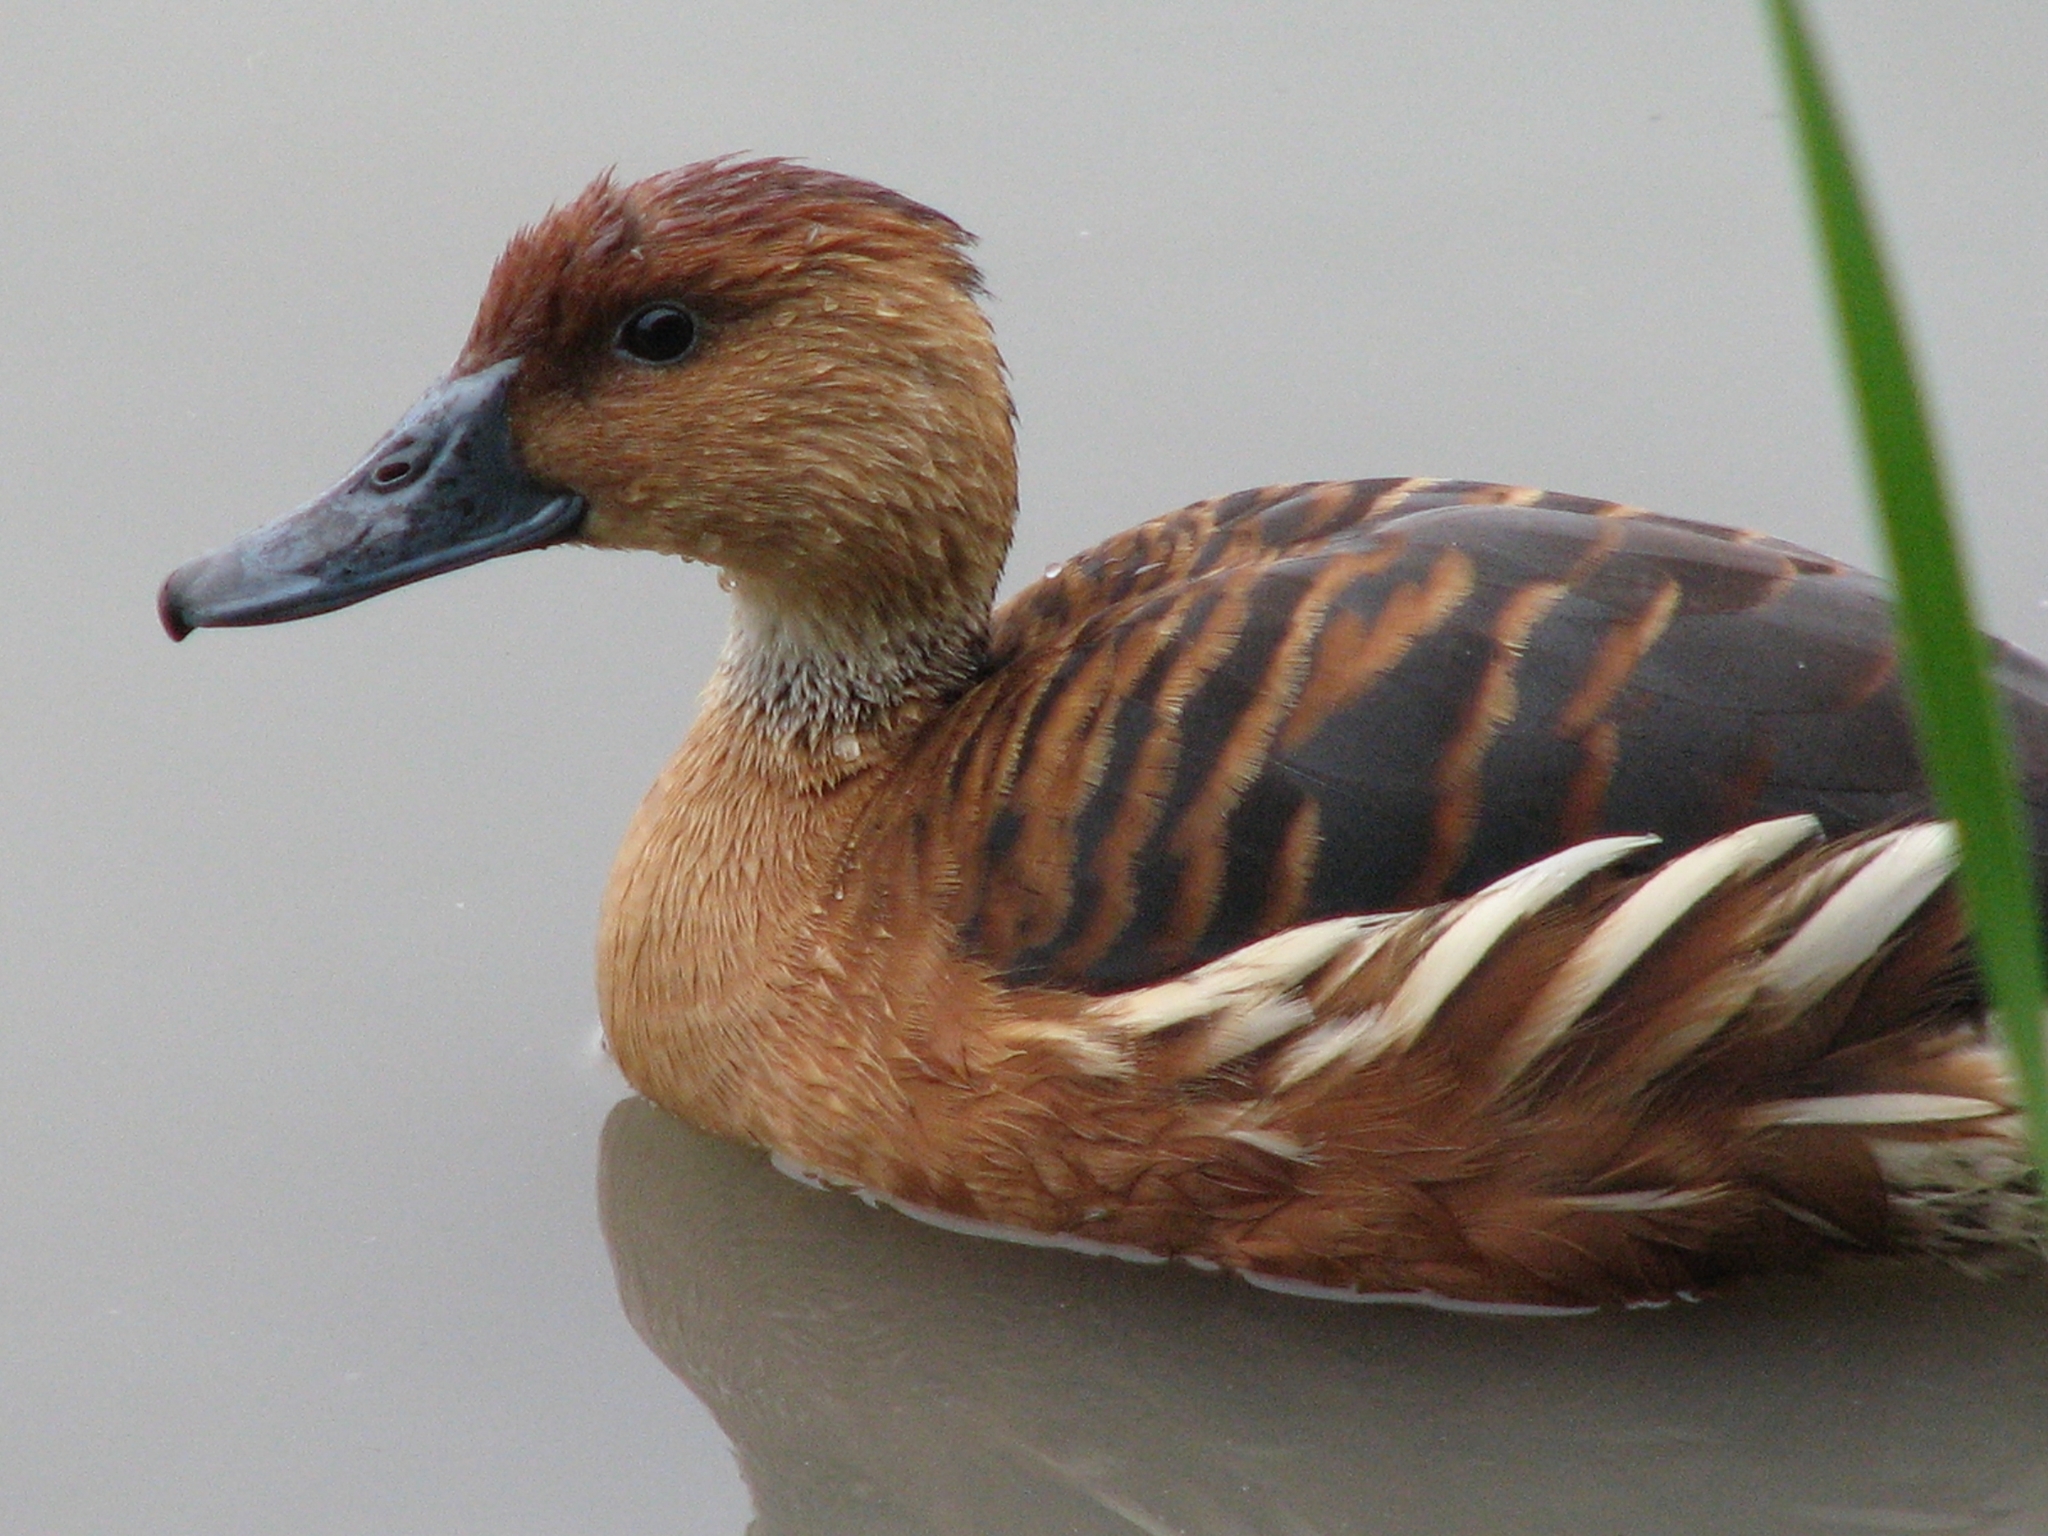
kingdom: Animalia
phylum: Chordata
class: Aves
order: Anseriformes
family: Anatidae
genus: Dendrocygna
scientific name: Dendrocygna bicolor
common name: Fulvous whistling duck
